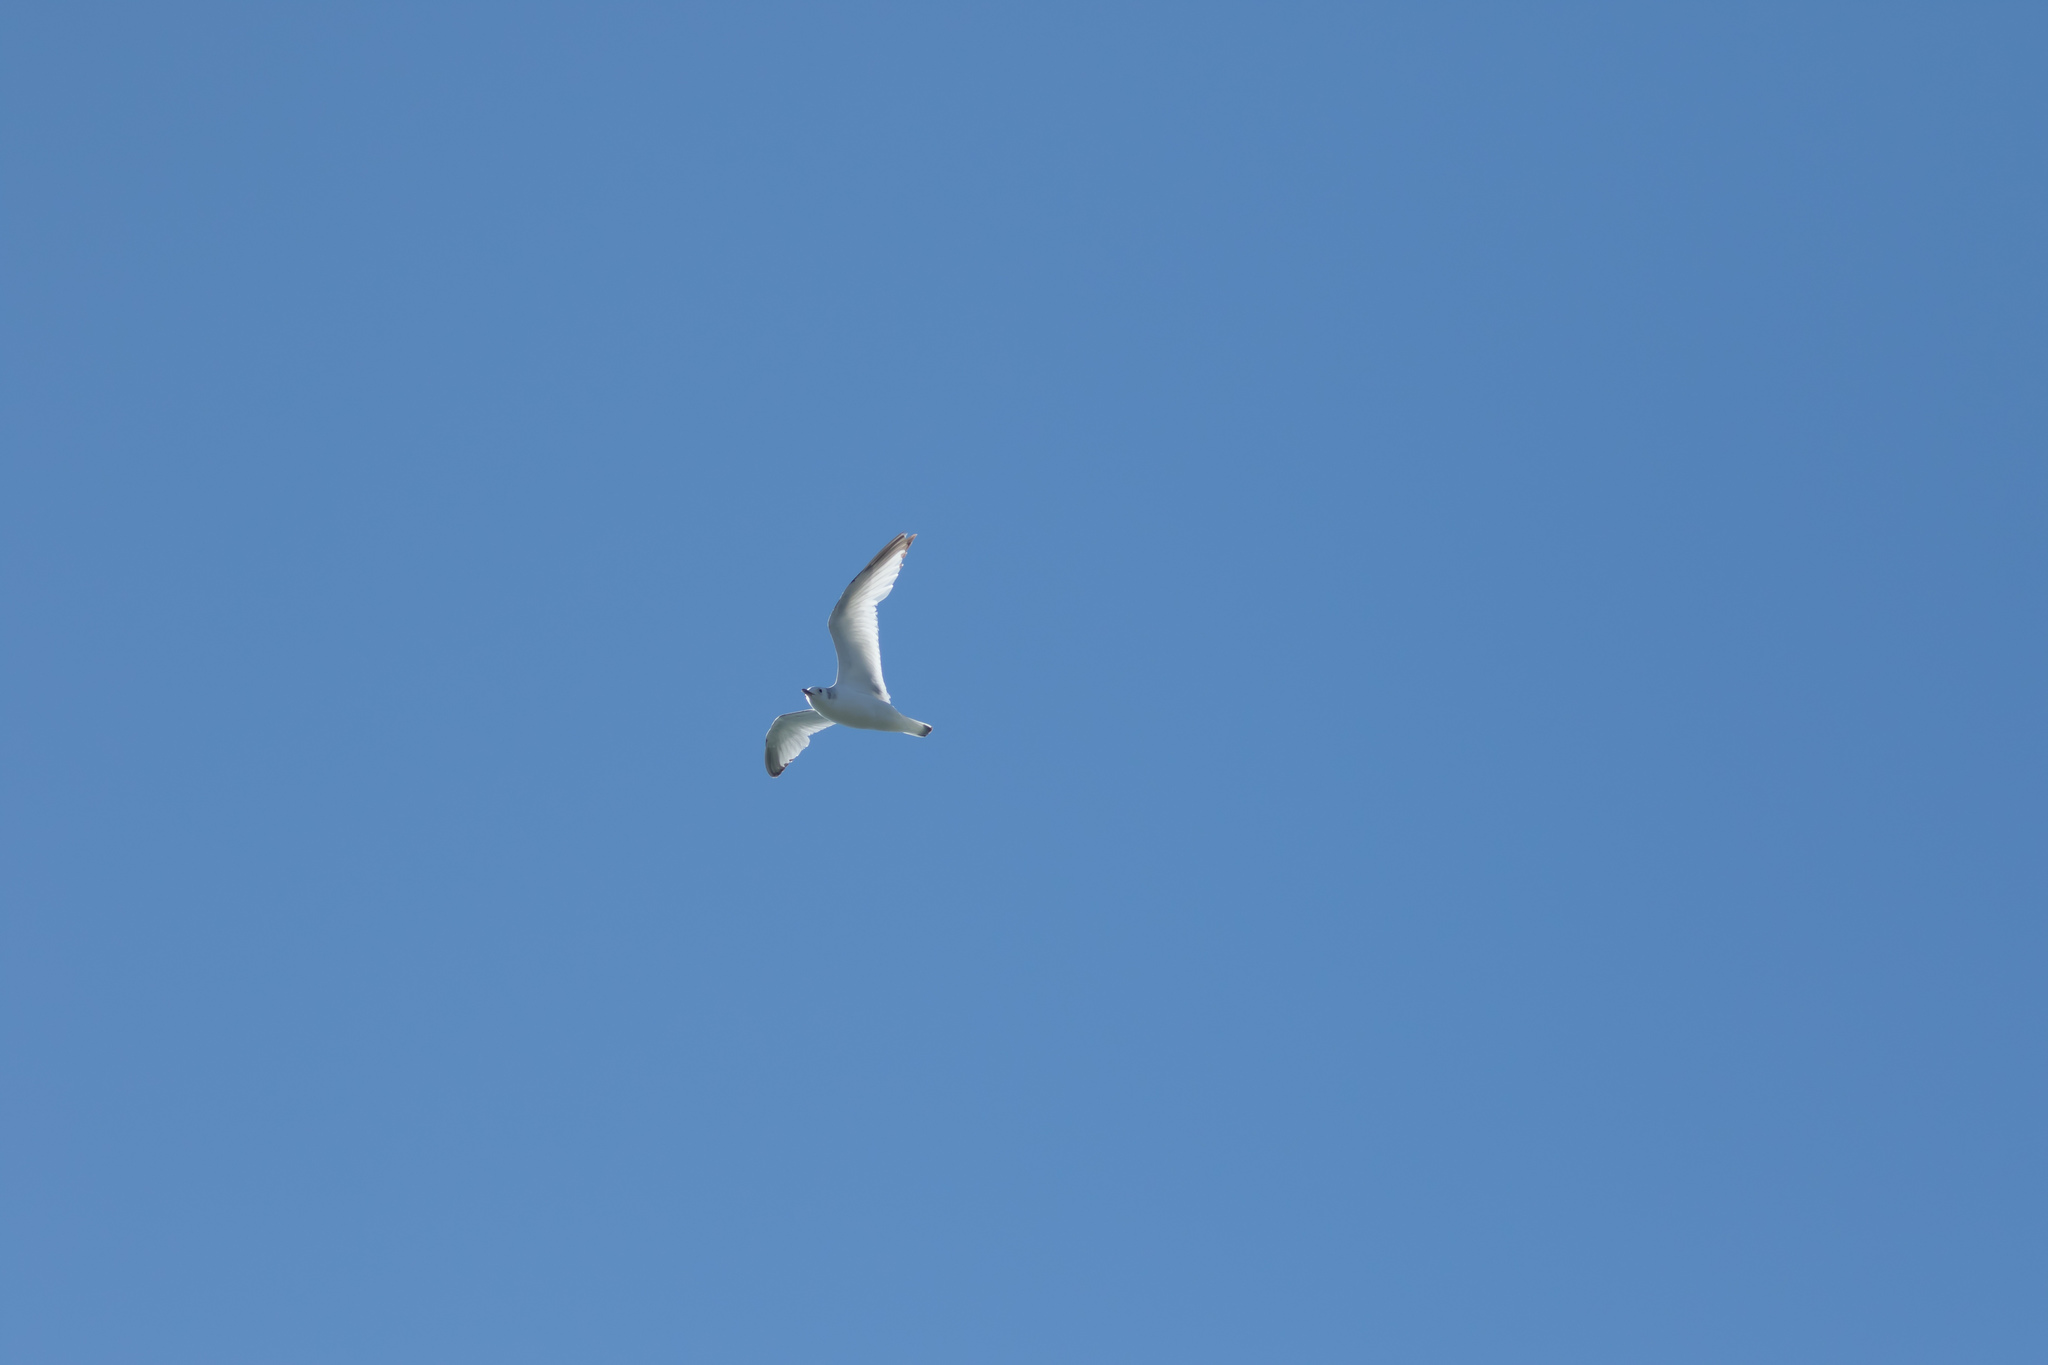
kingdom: Animalia
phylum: Chordata
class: Aves
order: Charadriiformes
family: Laridae
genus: Rissa
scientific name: Rissa tridactyla
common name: Black-legged kittiwake
